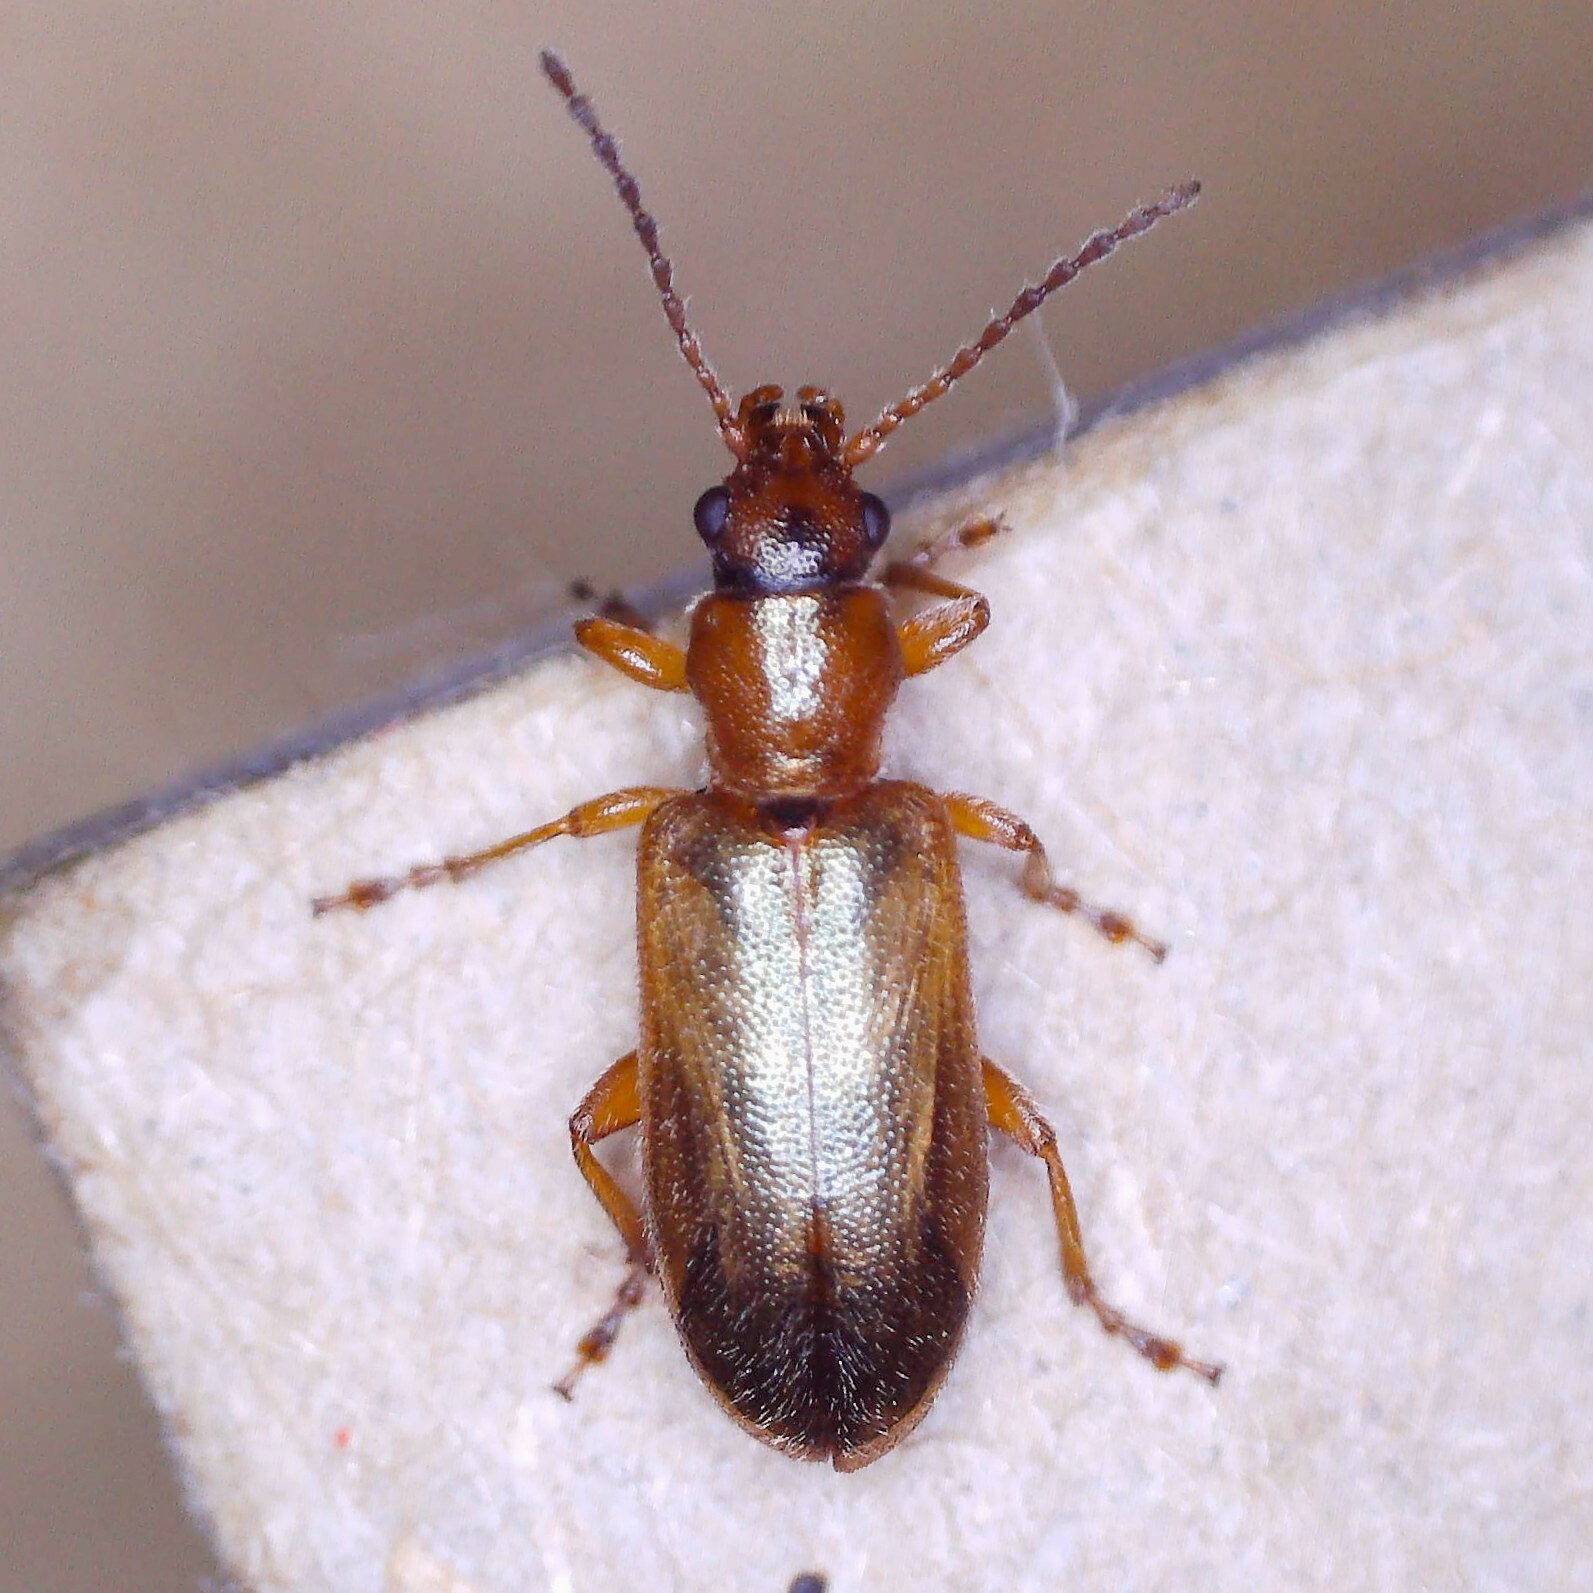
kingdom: Animalia
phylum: Arthropoda
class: Insecta
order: Coleoptera
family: Orsodacnidae
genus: Orsodacne
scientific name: Orsodacne humeralis
